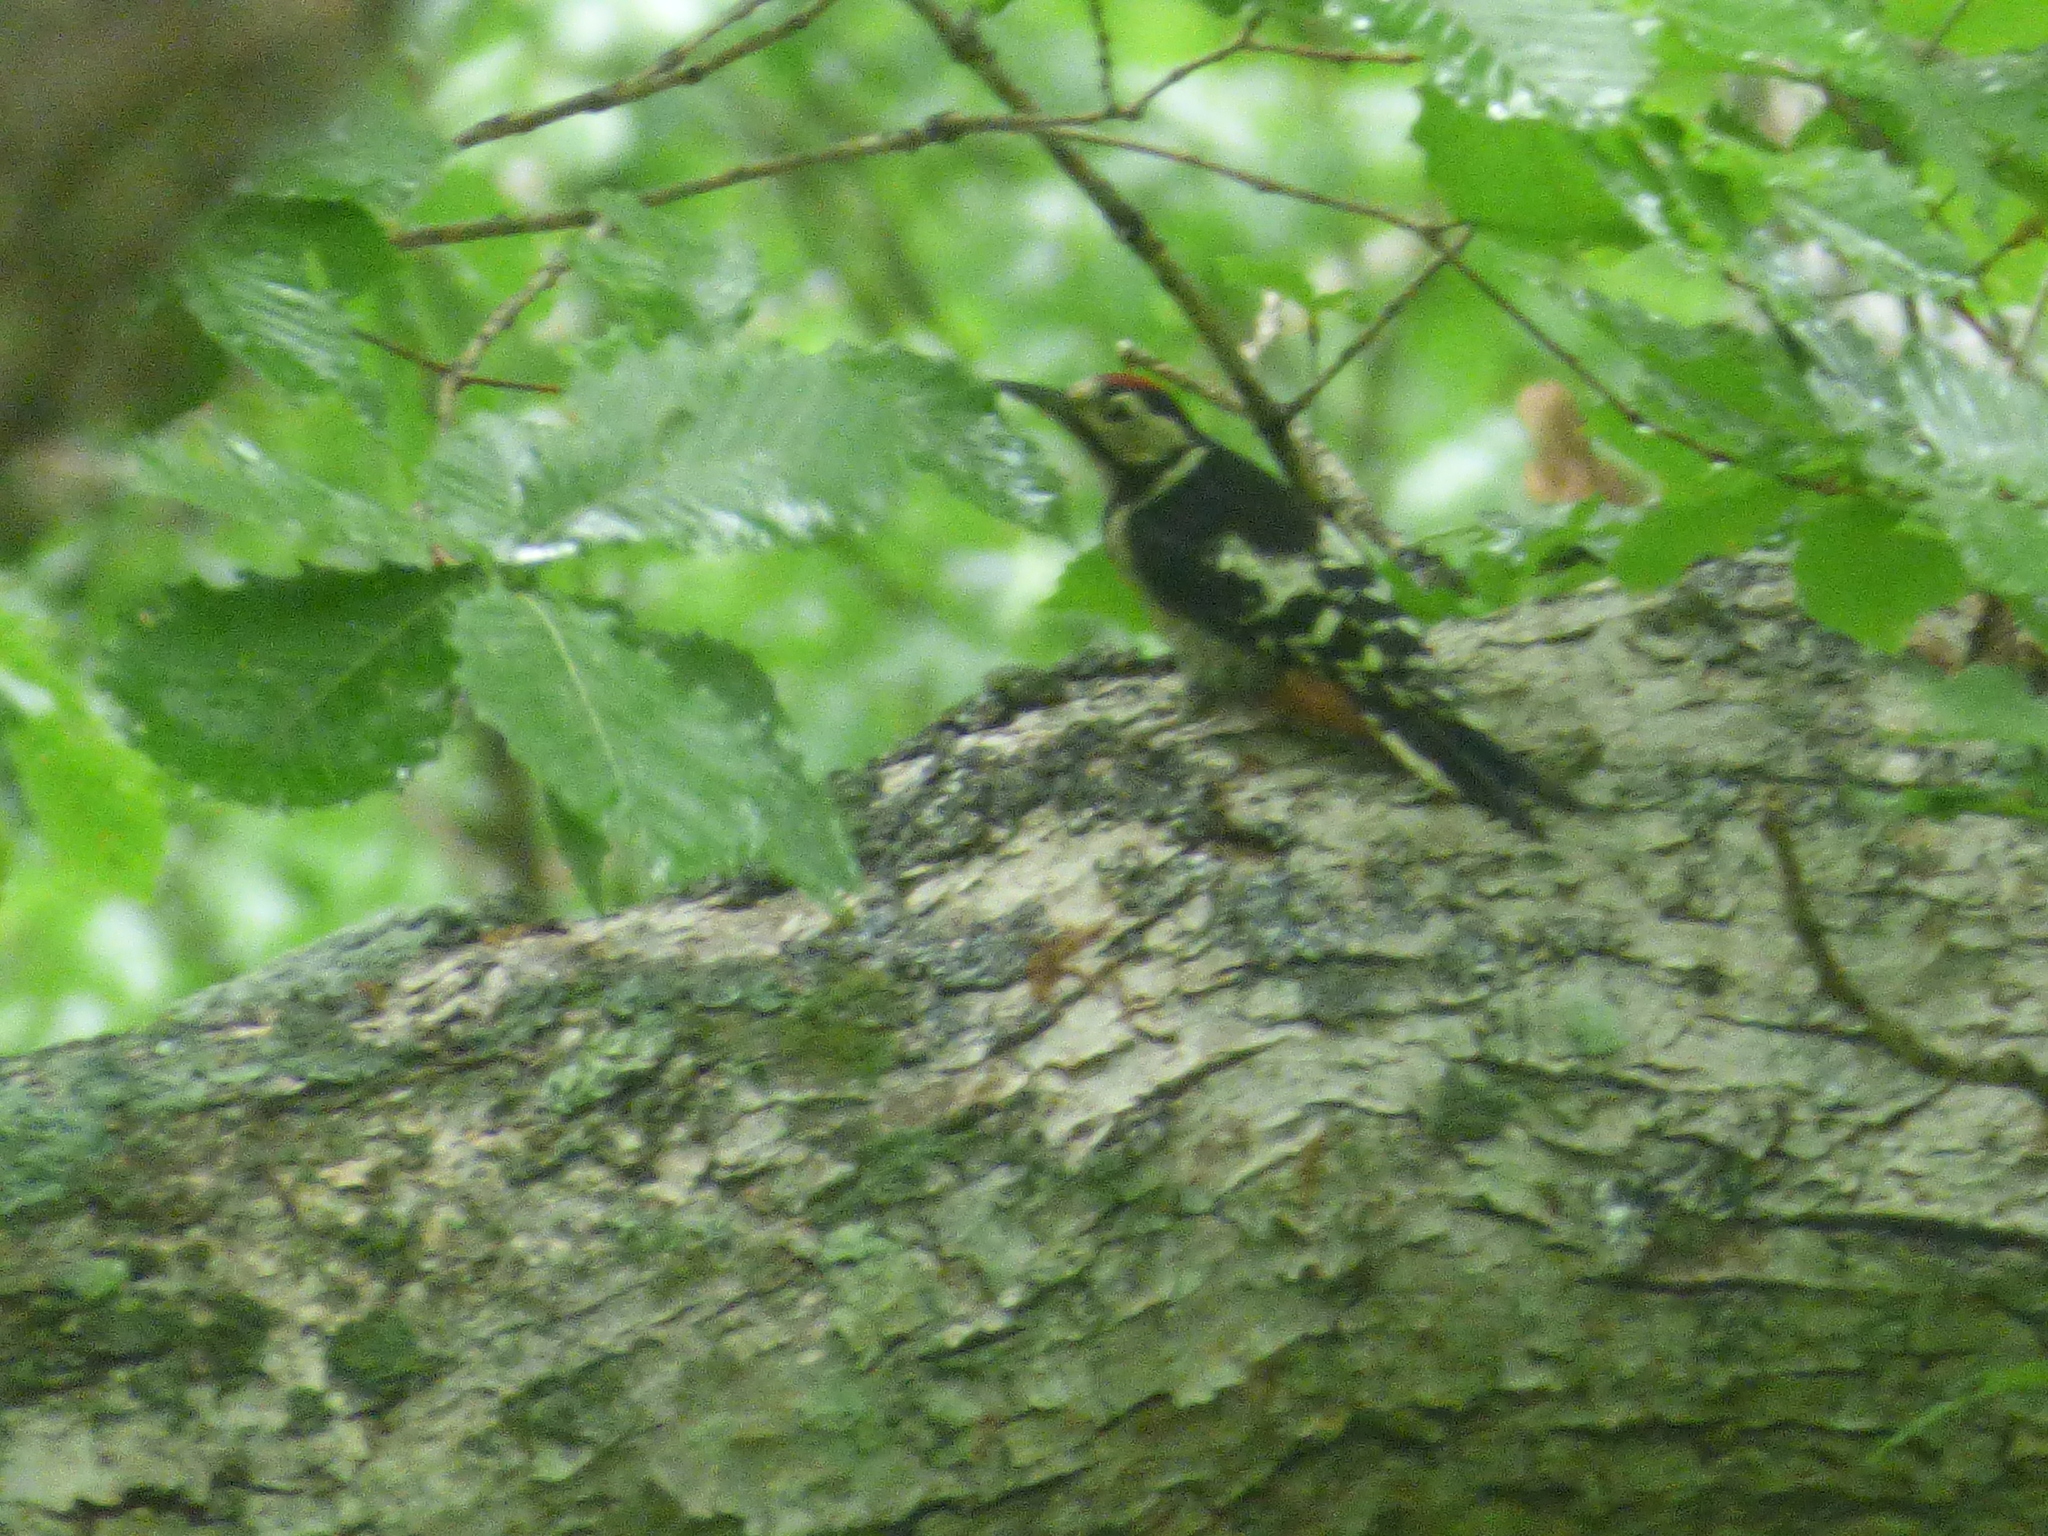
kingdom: Animalia
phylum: Chordata
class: Aves
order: Piciformes
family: Picidae
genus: Dendrocopos
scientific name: Dendrocopos major
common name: Great spotted woodpecker
